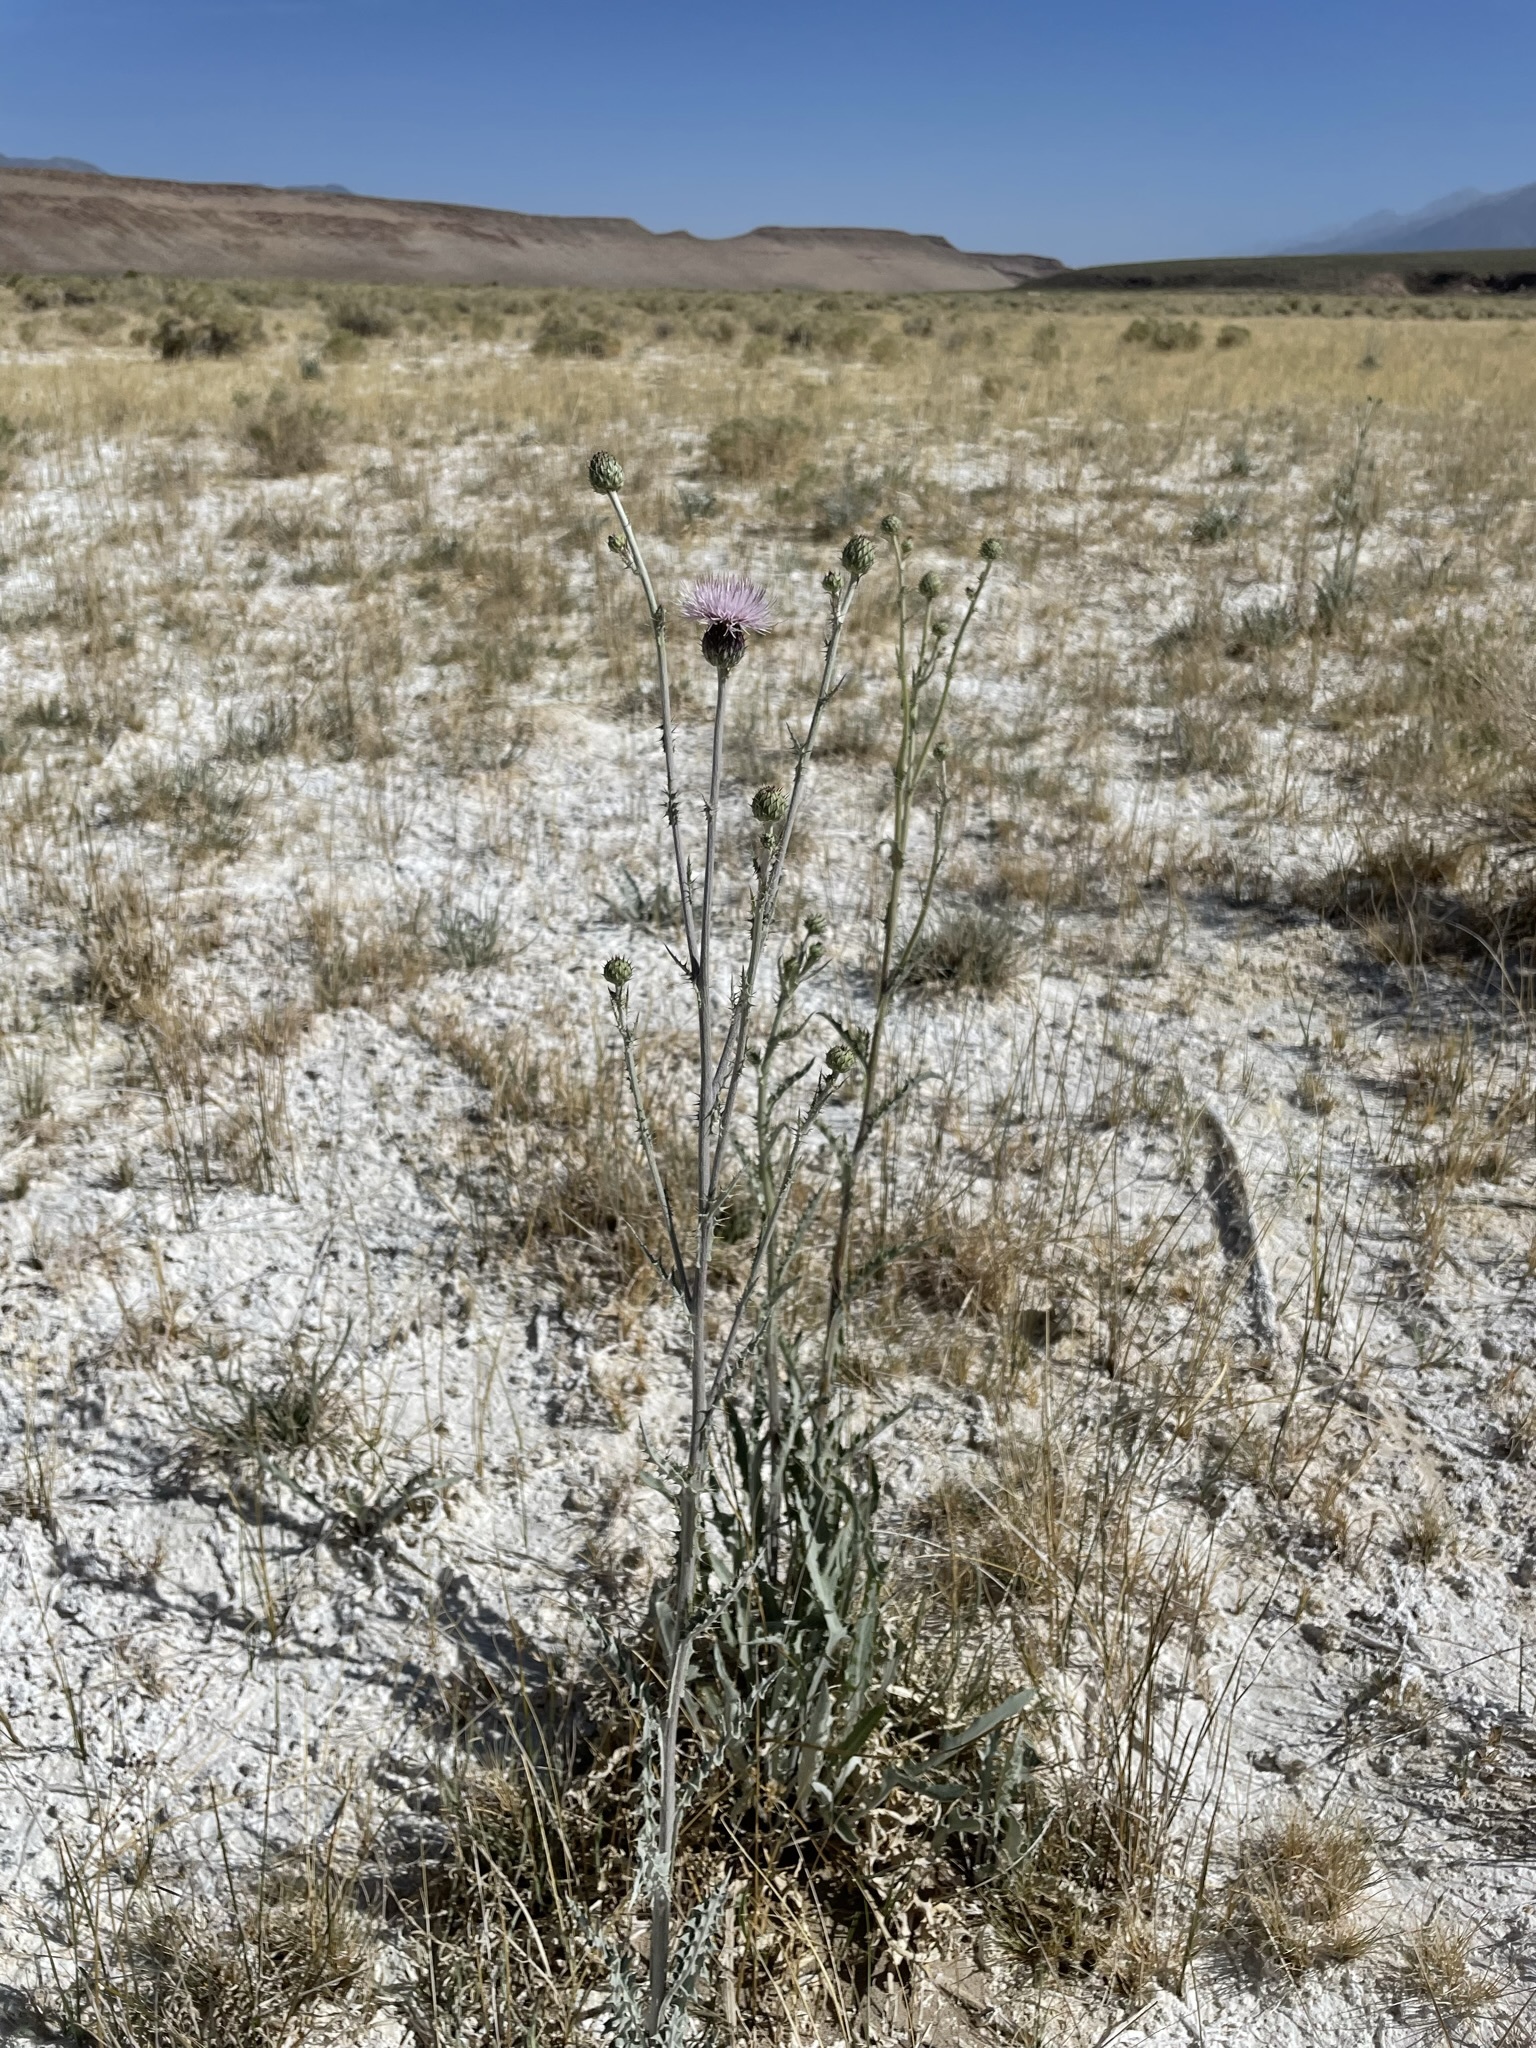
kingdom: Plantae
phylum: Tracheophyta
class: Magnoliopsida
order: Asterales
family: Asteraceae
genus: Cirsium
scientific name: Cirsium mohavense
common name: Mojave thistle
